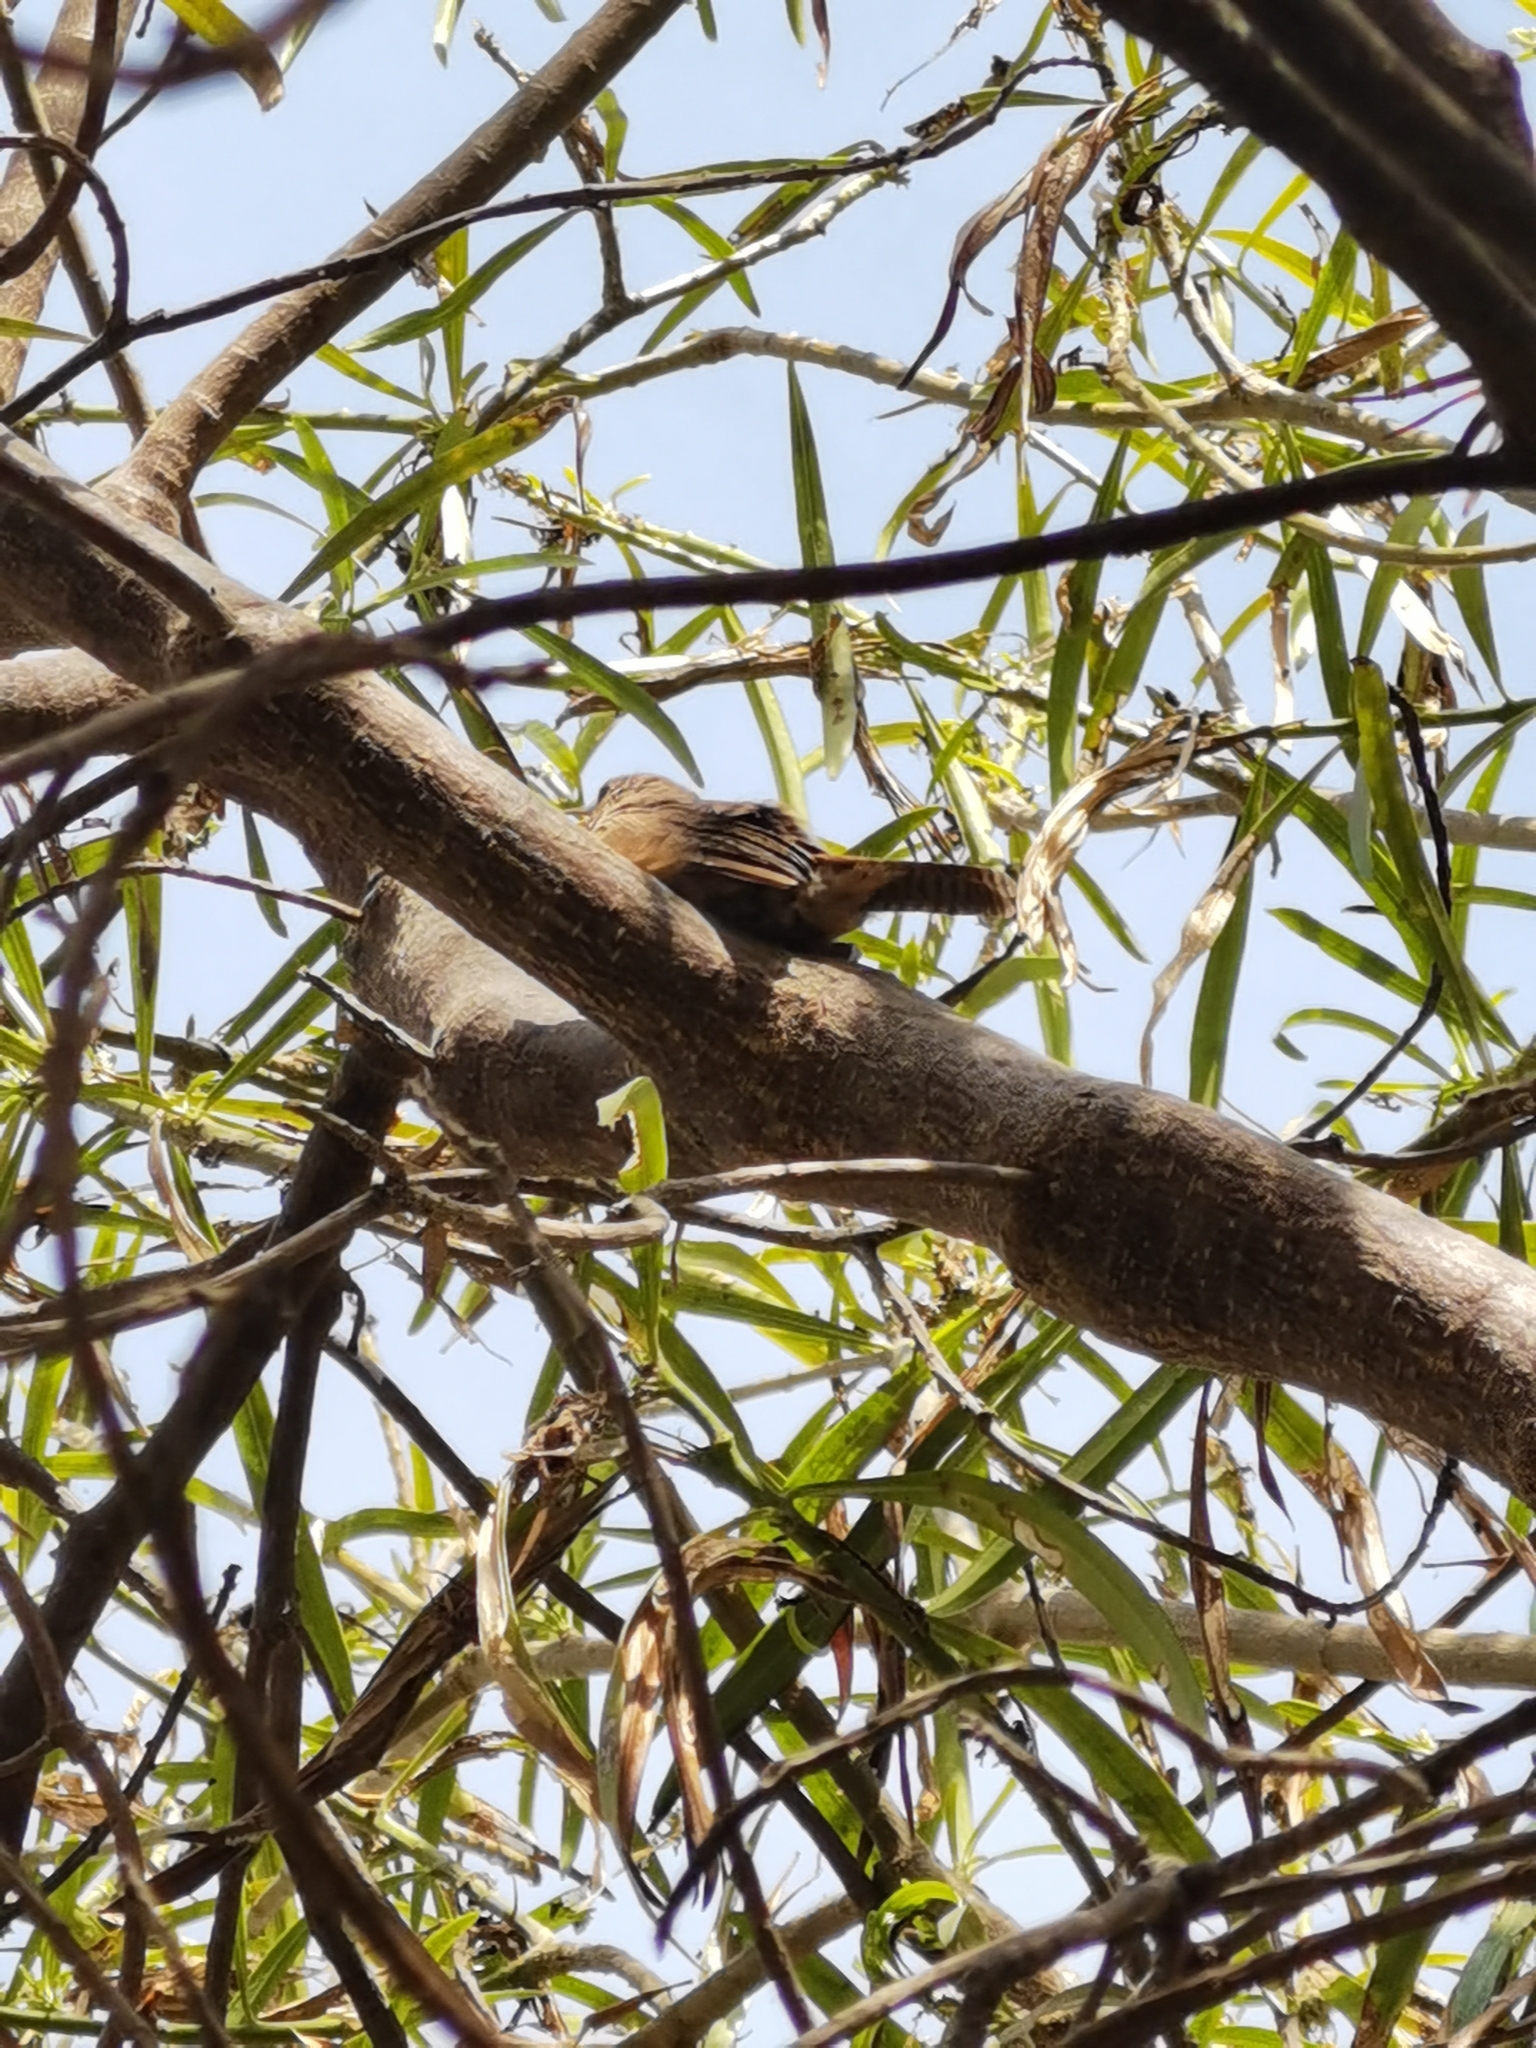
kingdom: Animalia
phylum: Chordata
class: Aves
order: Passeriformes
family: Troglodytidae
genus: Troglodytes
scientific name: Troglodytes aedon
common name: House wren
